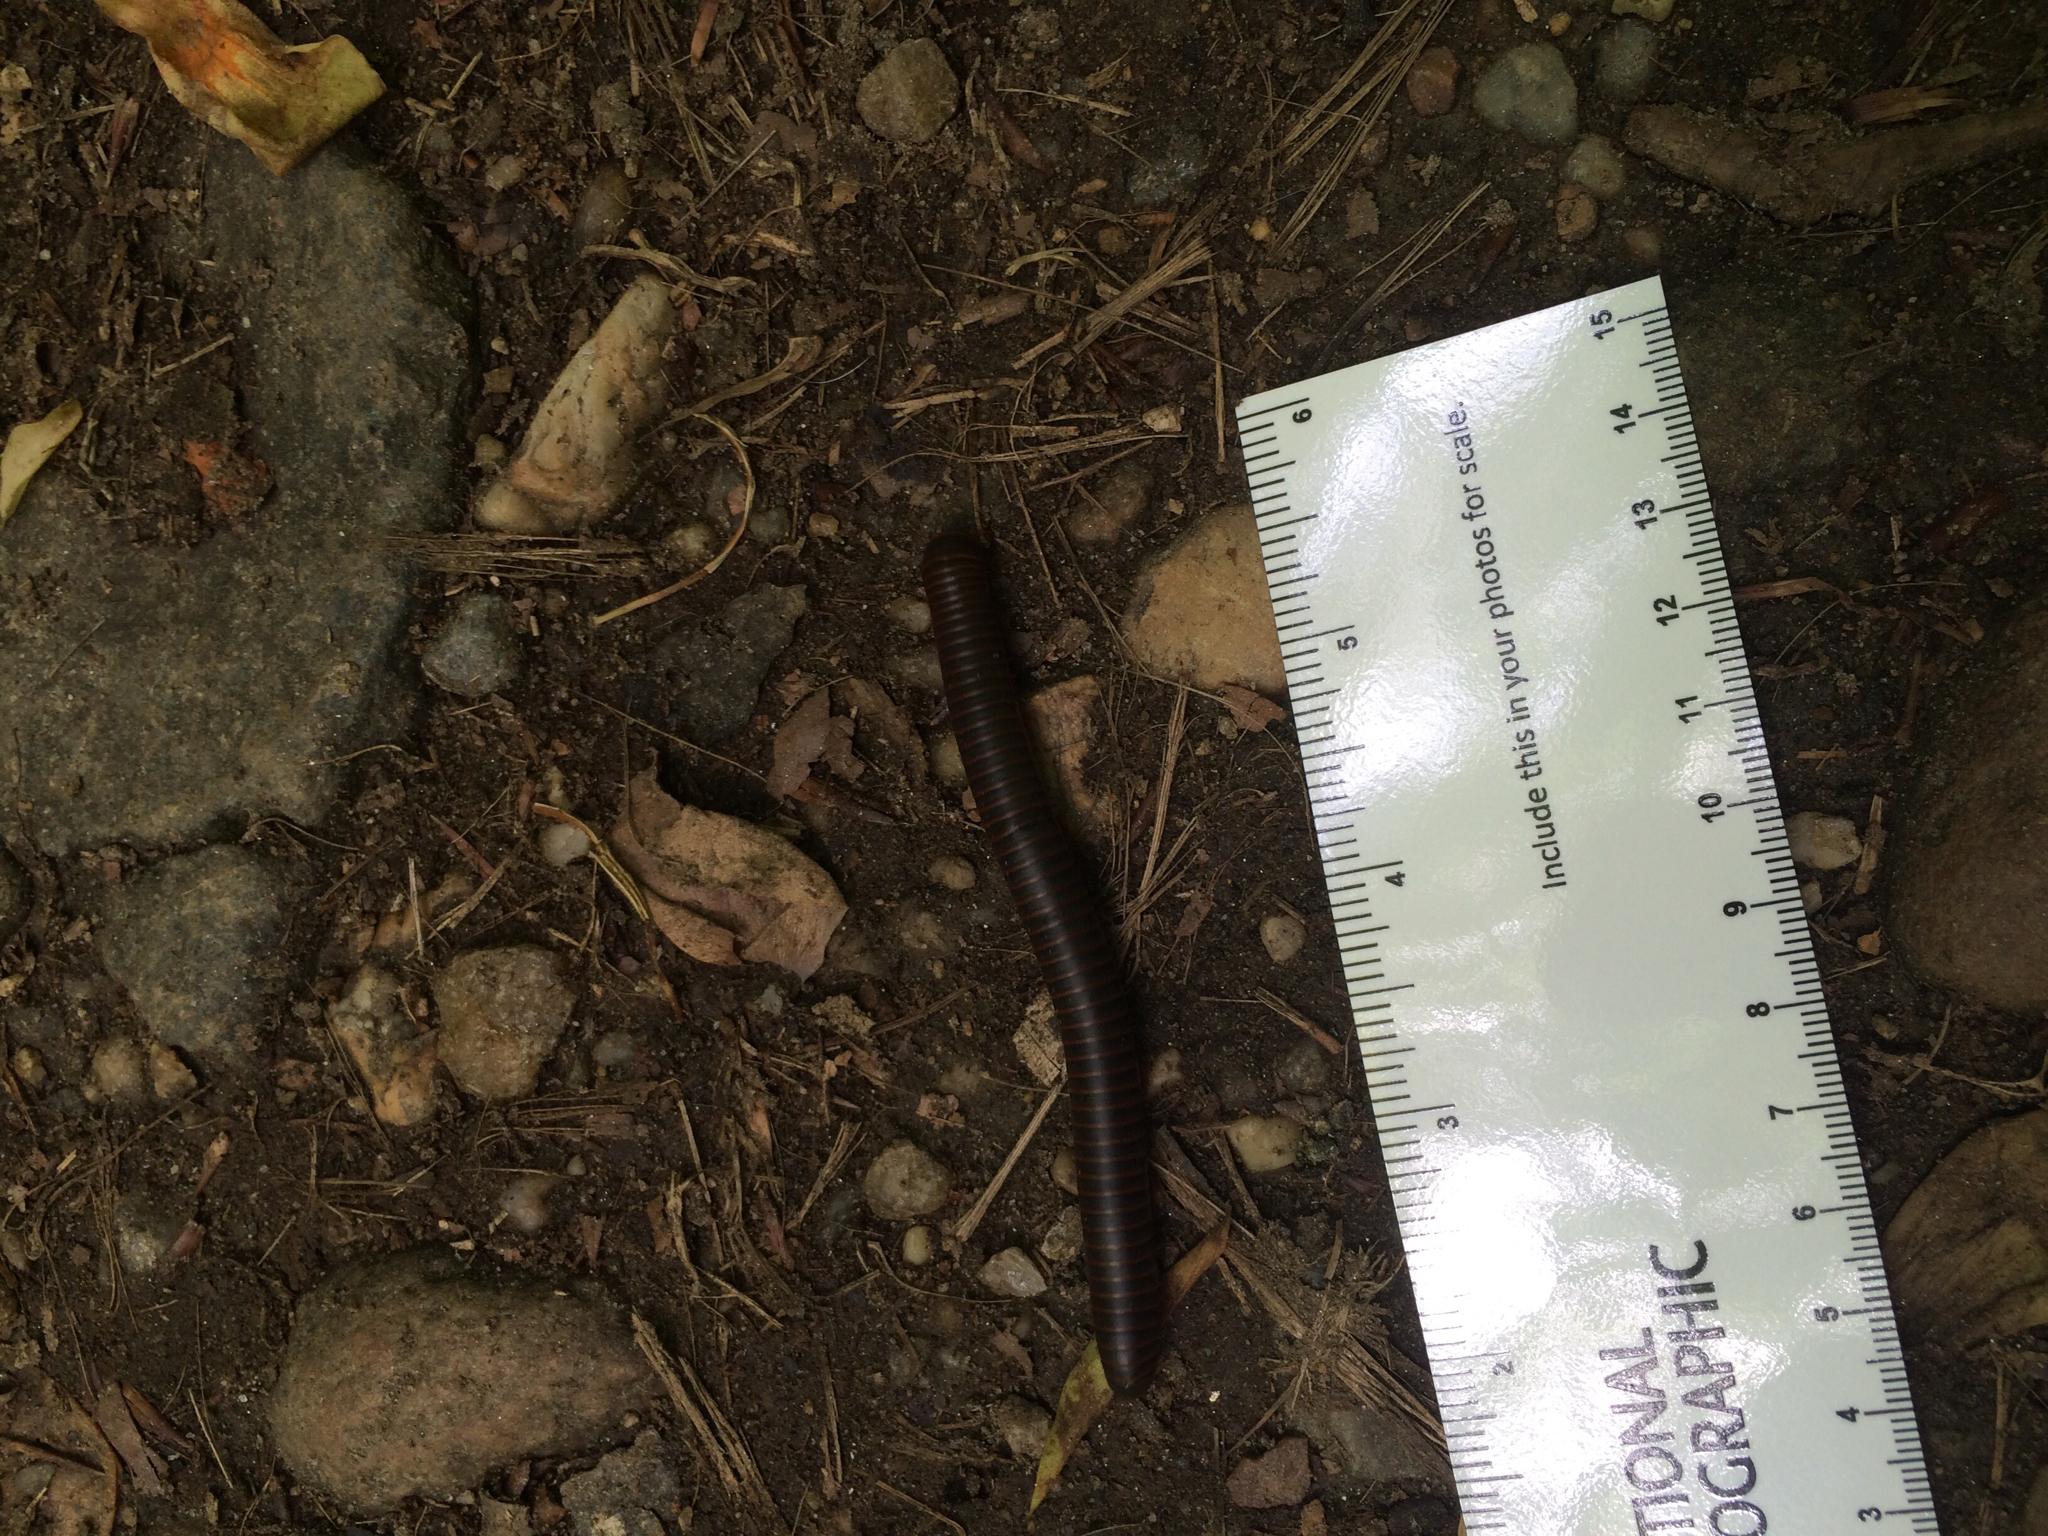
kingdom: Animalia
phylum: Arthropoda
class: Diplopoda
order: Spirobolida
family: Spirobolidae
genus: Narceus
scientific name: Narceus
